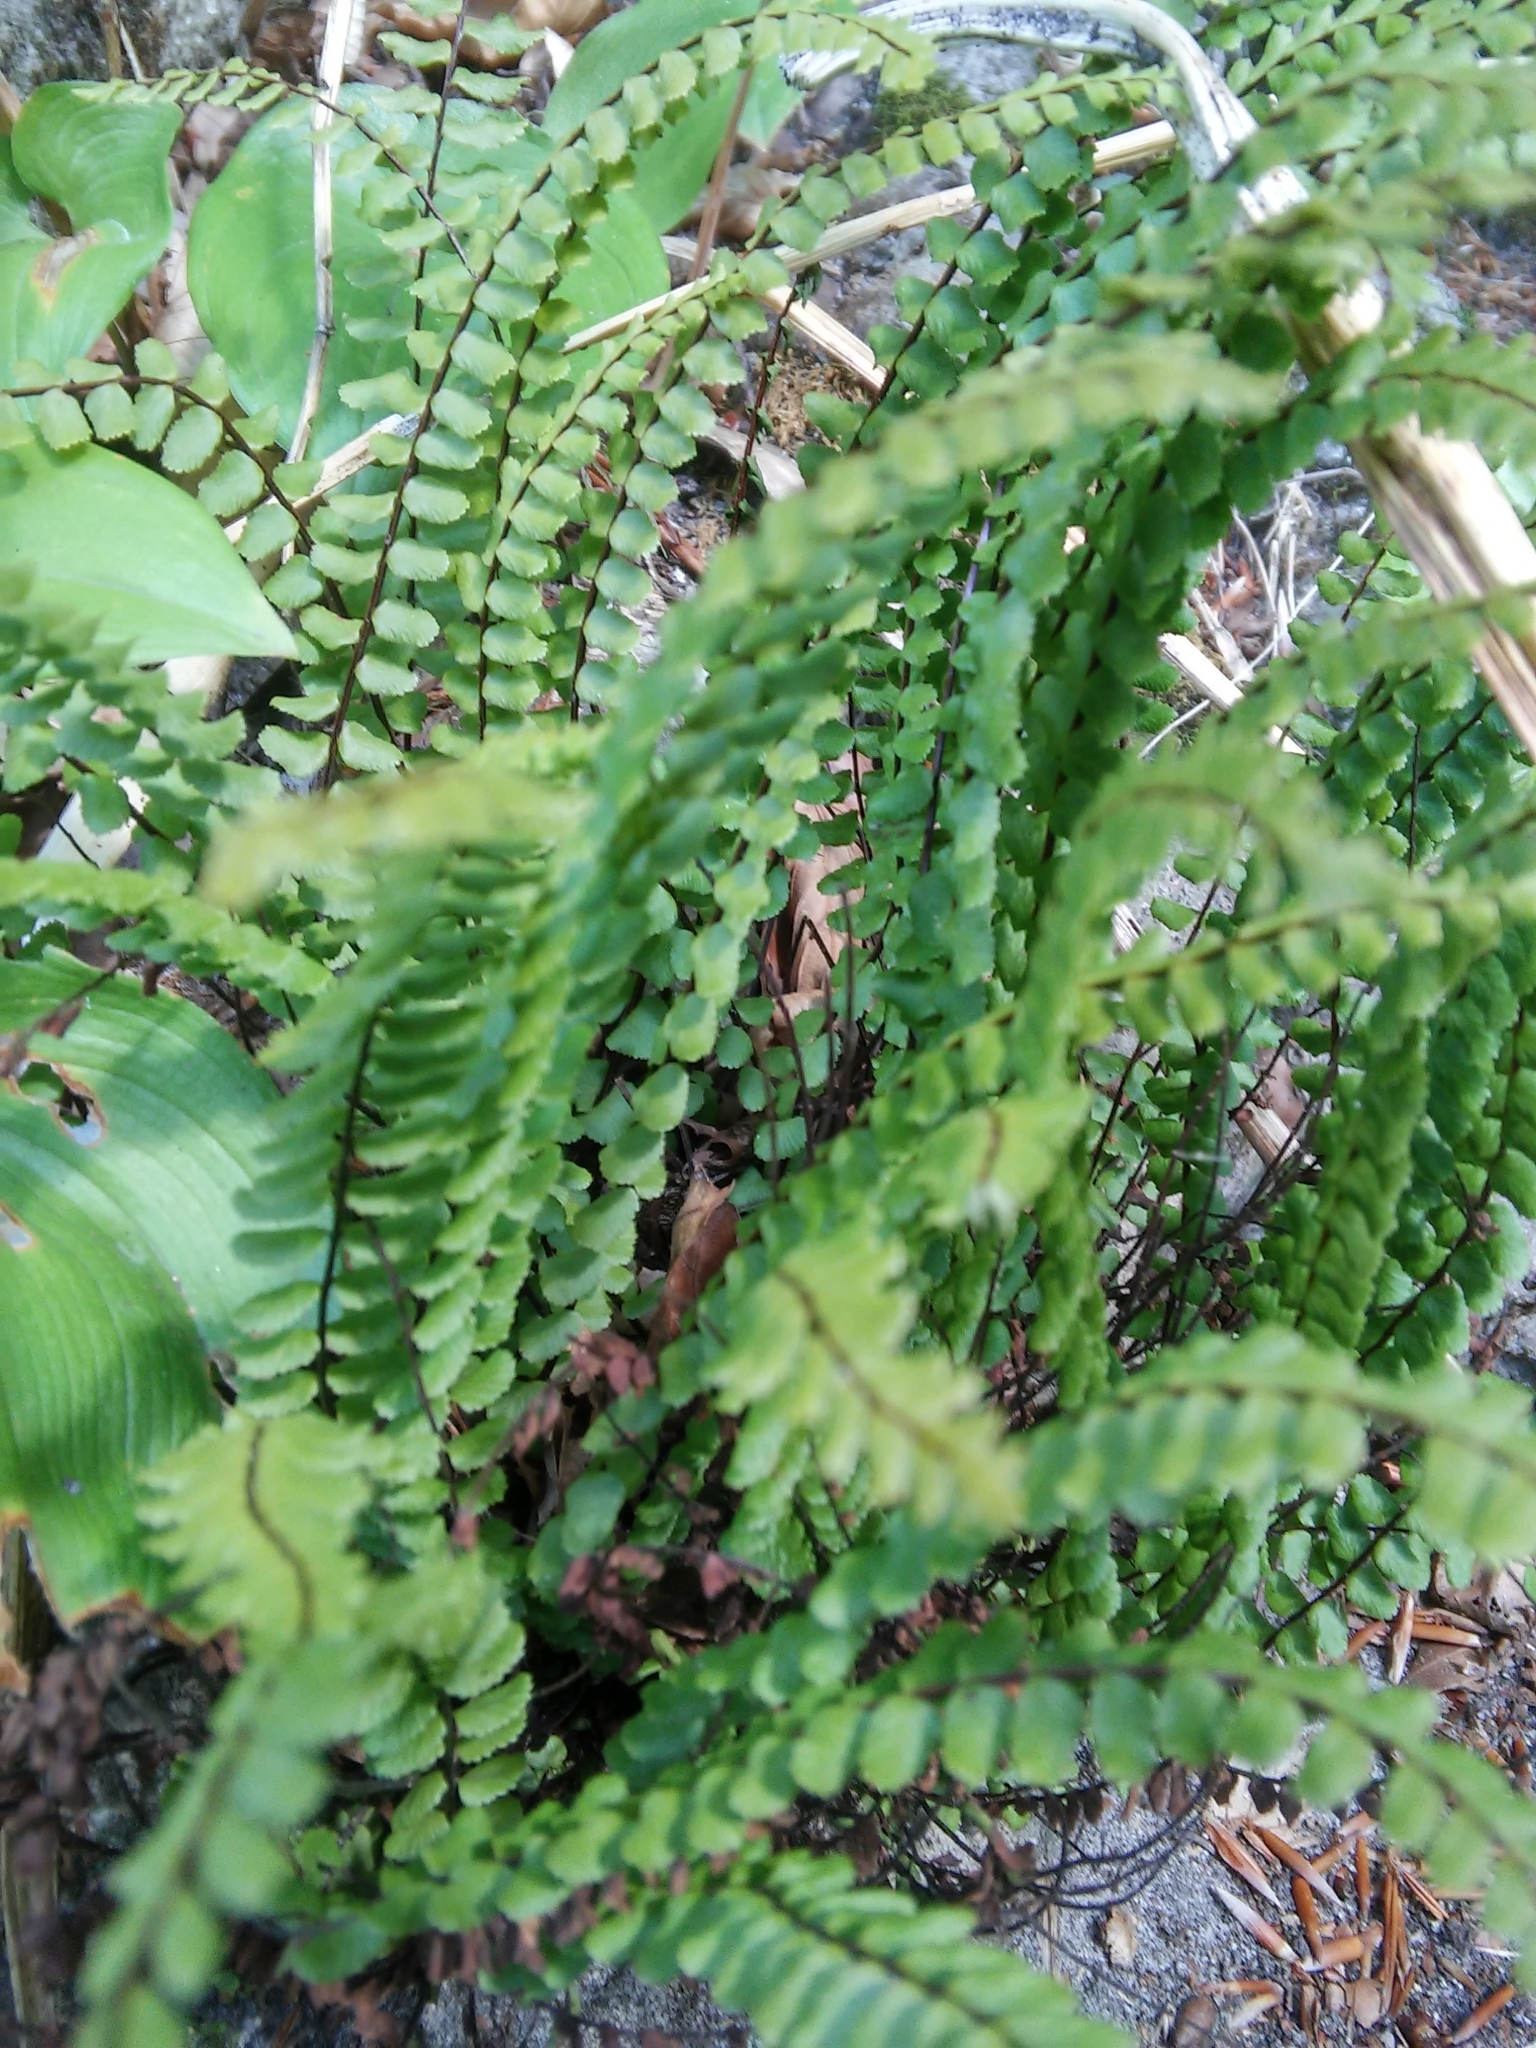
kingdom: Plantae
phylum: Tracheophyta
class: Polypodiopsida
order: Polypodiales
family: Aspleniaceae
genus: Asplenium
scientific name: Asplenium trichomanes
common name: Maidenhair spleenwort
